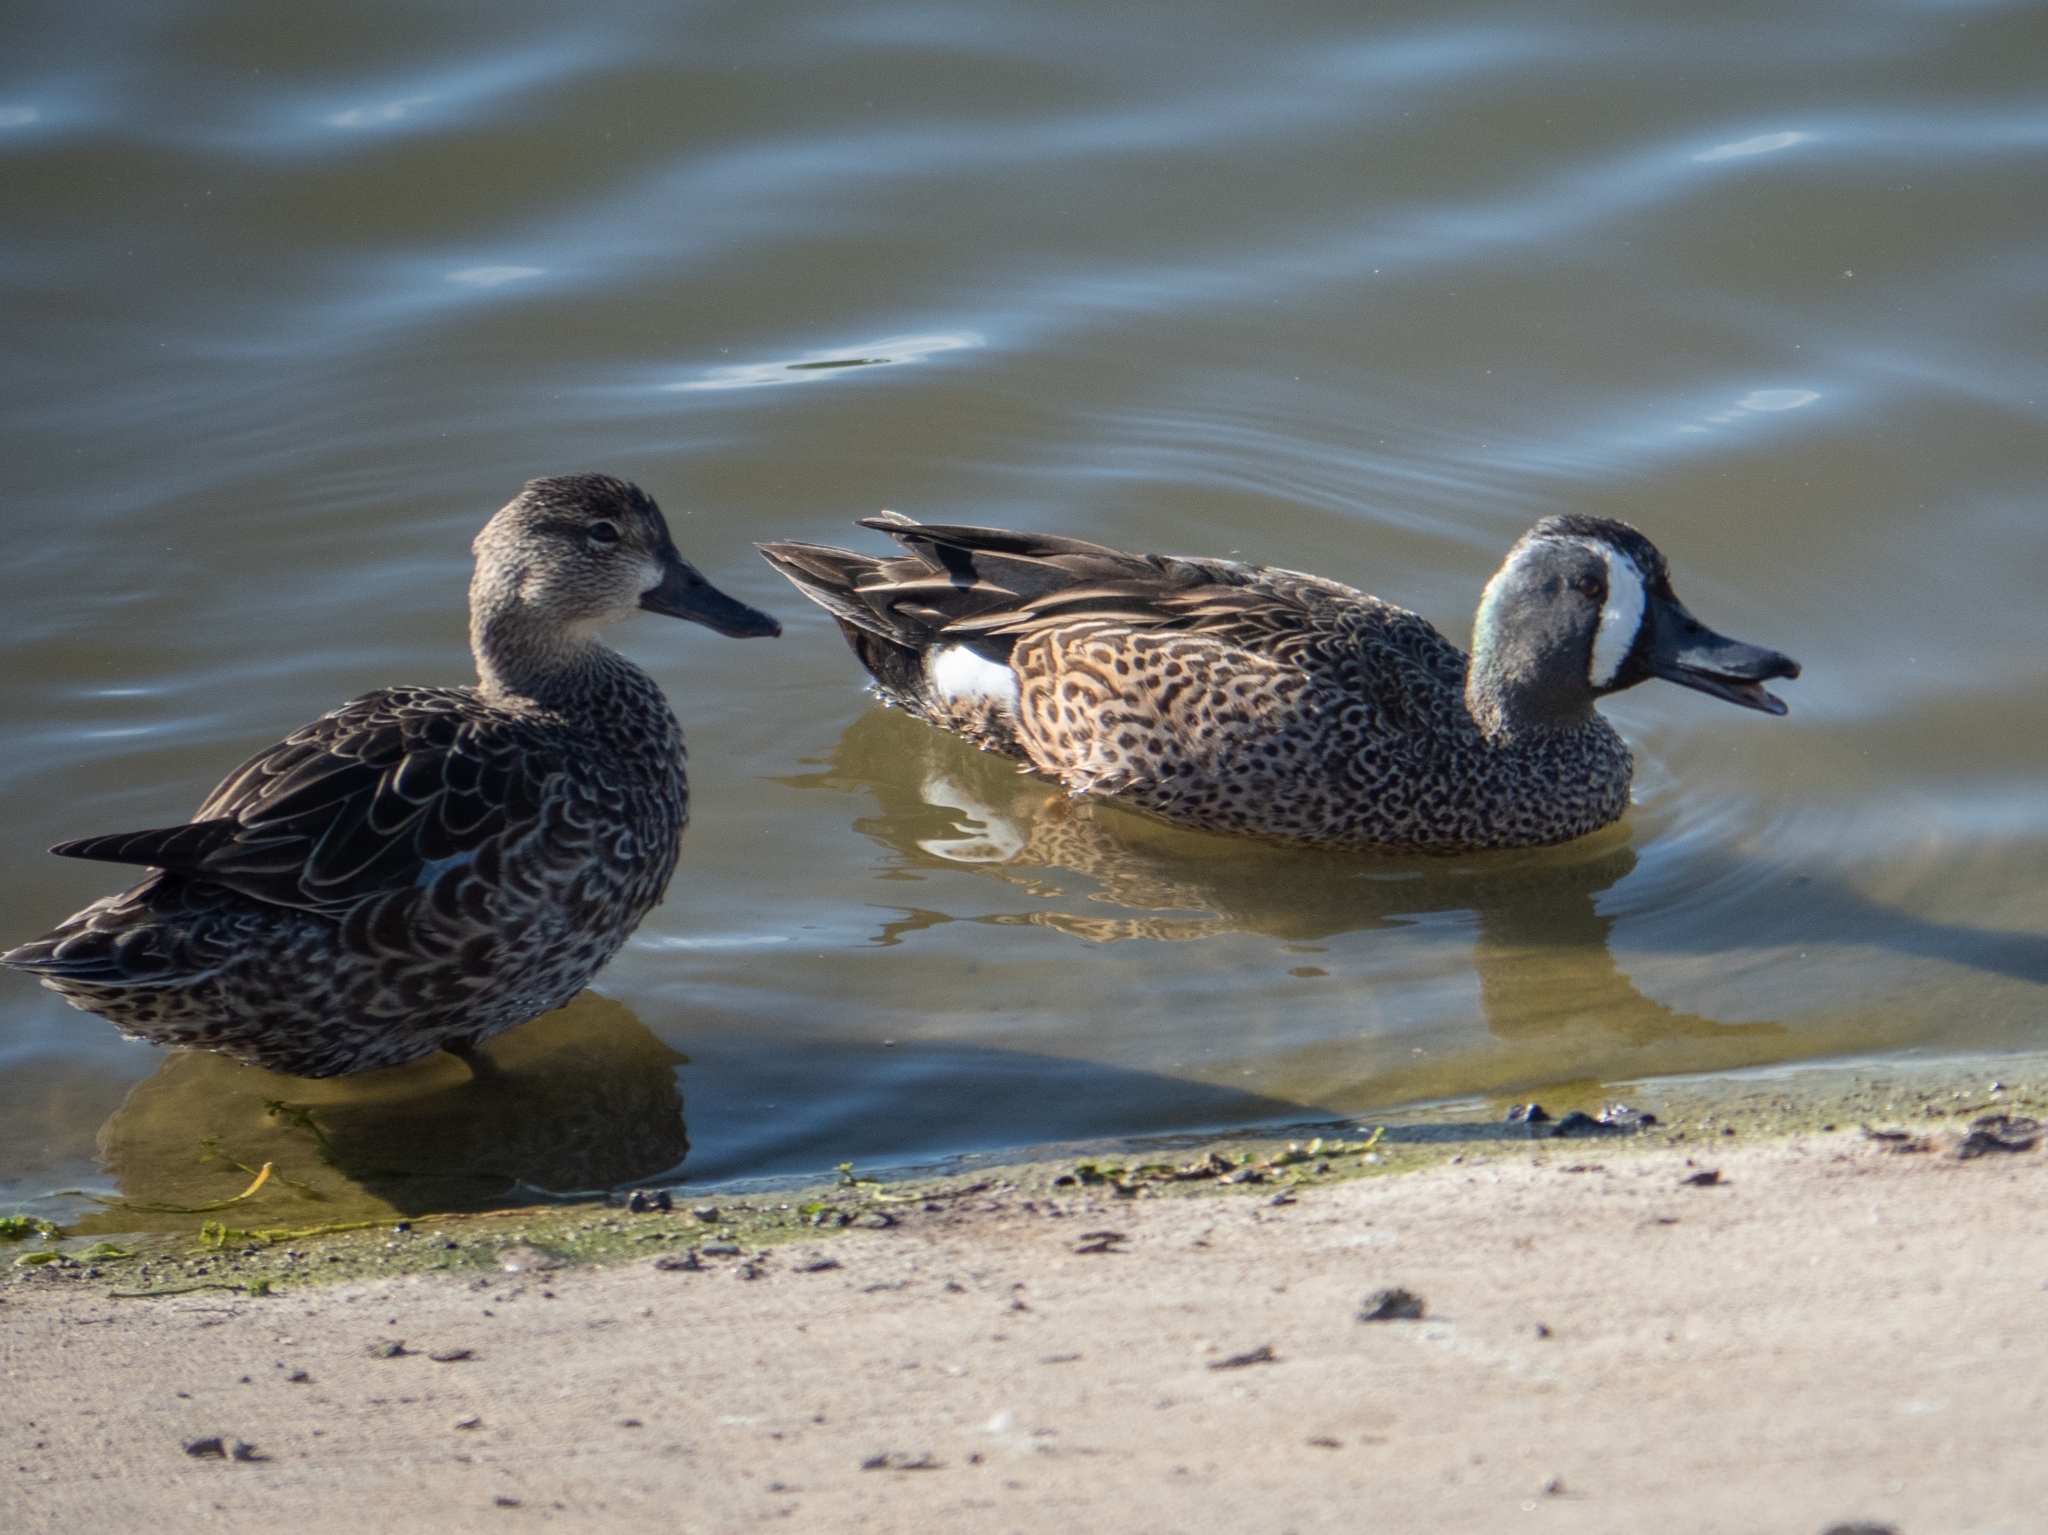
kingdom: Animalia
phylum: Chordata
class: Aves
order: Anseriformes
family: Anatidae
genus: Spatula
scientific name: Spatula discors
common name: Blue-winged teal
